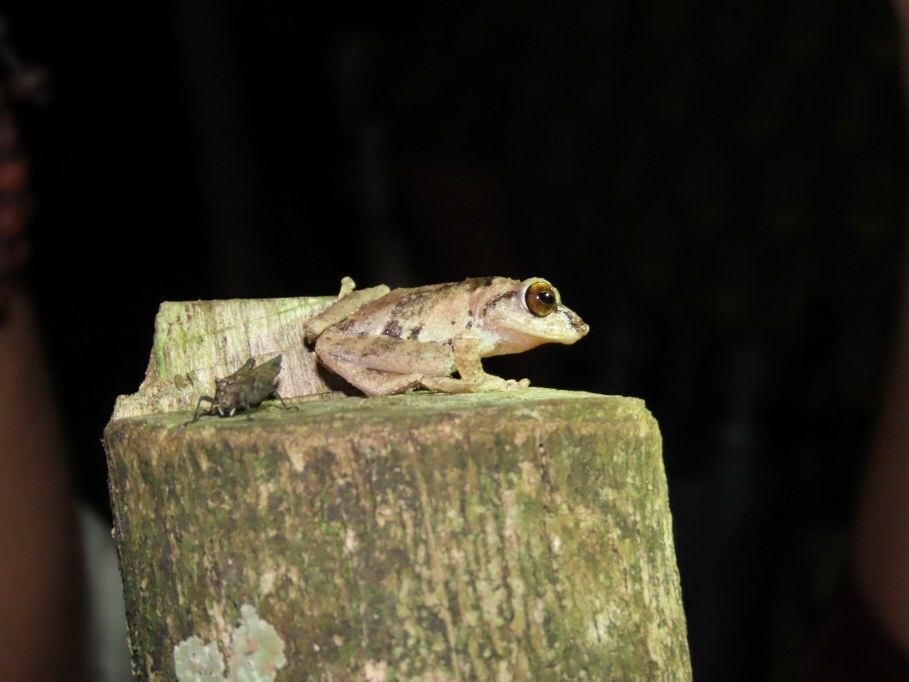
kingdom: Animalia
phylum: Chordata
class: Amphibia
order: Anura
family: Rhacophoridae
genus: Raorchestes
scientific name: Raorchestes anili
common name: Anil's bush frog
